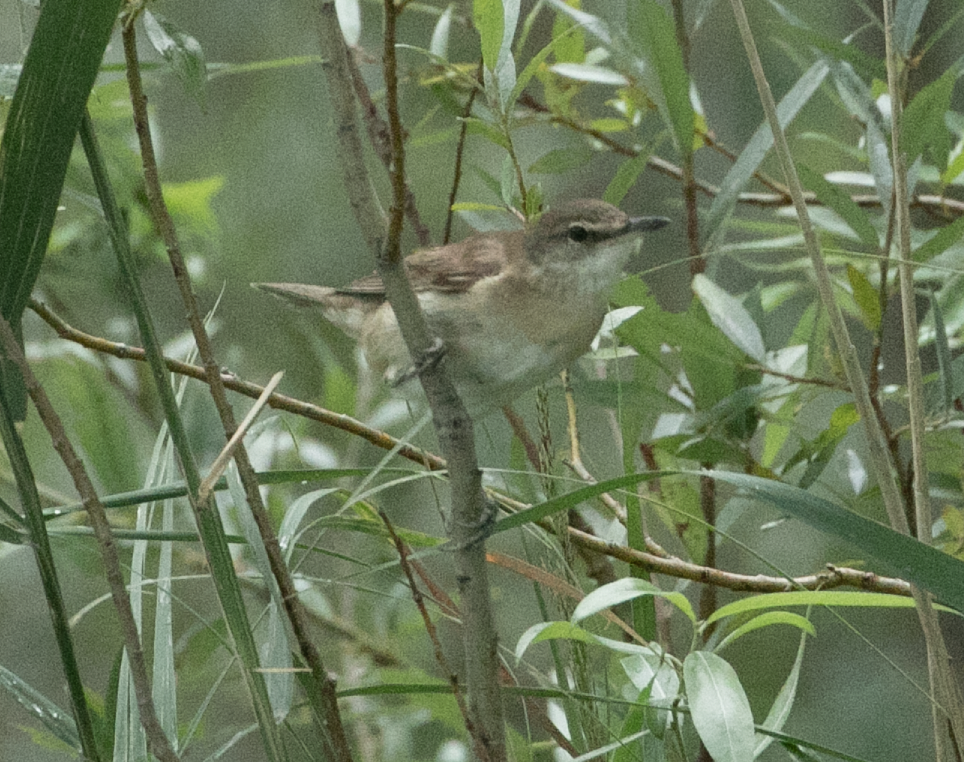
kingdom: Animalia
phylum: Chordata
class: Aves
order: Passeriformes
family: Acrocephalidae
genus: Acrocephalus
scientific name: Acrocephalus arundinaceus
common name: Great reed warbler
